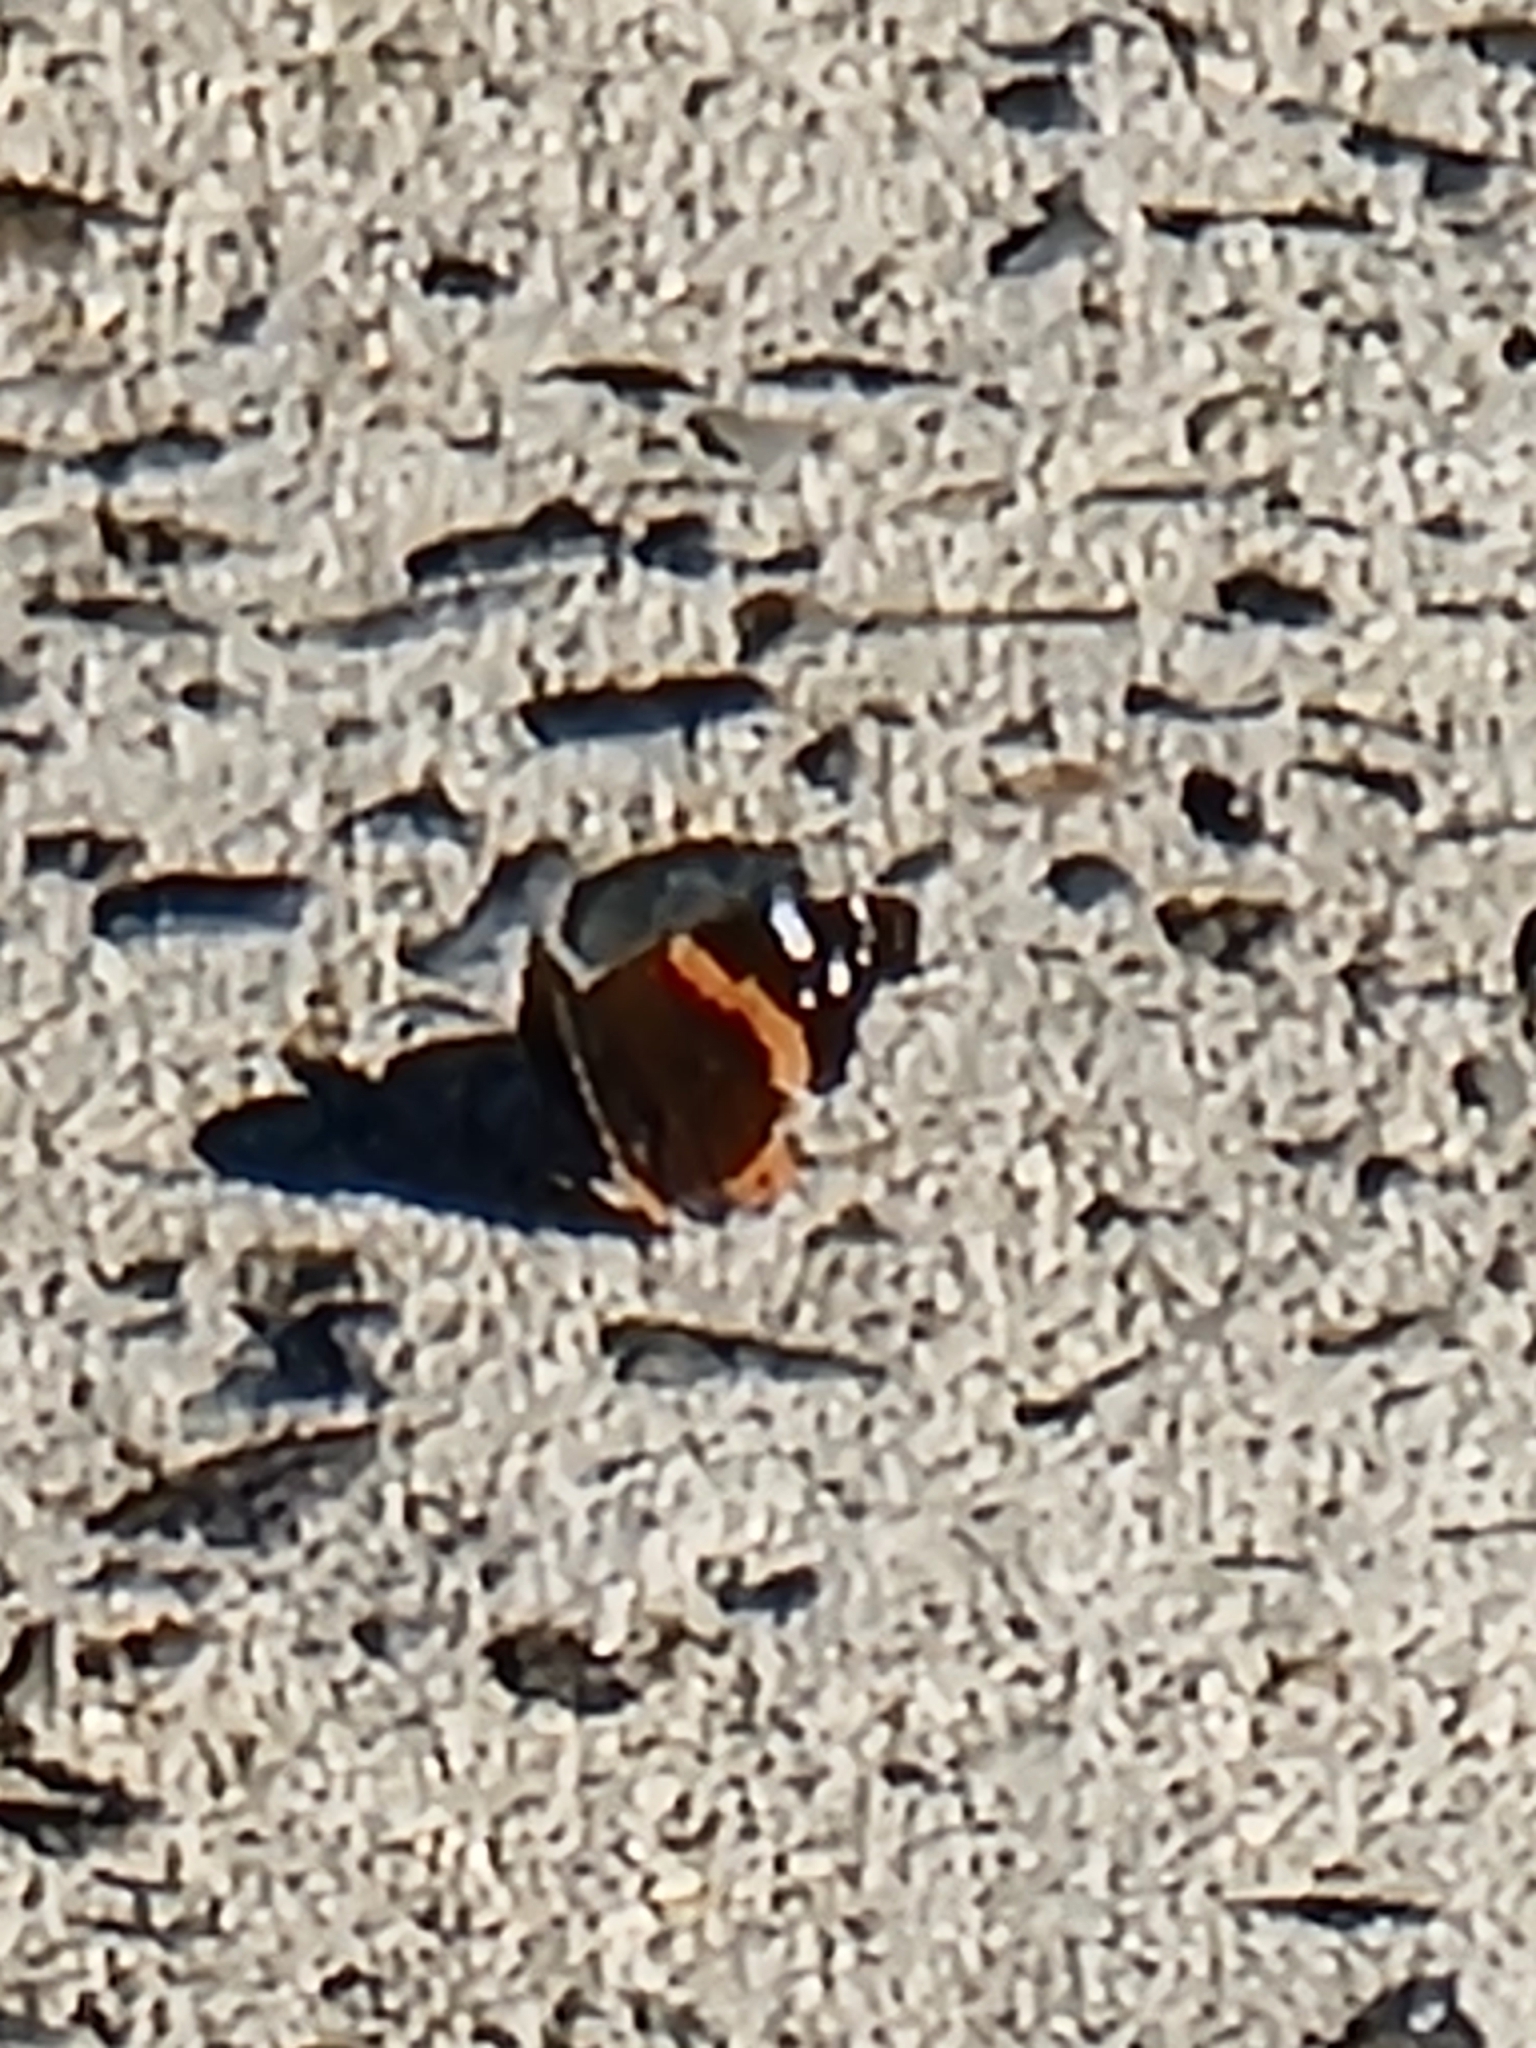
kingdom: Animalia
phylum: Arthropoda
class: Insecta
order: Lepidoptera
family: Nymphalidae
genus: Vanessa
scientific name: Vanessa atalanta
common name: Red admiral
